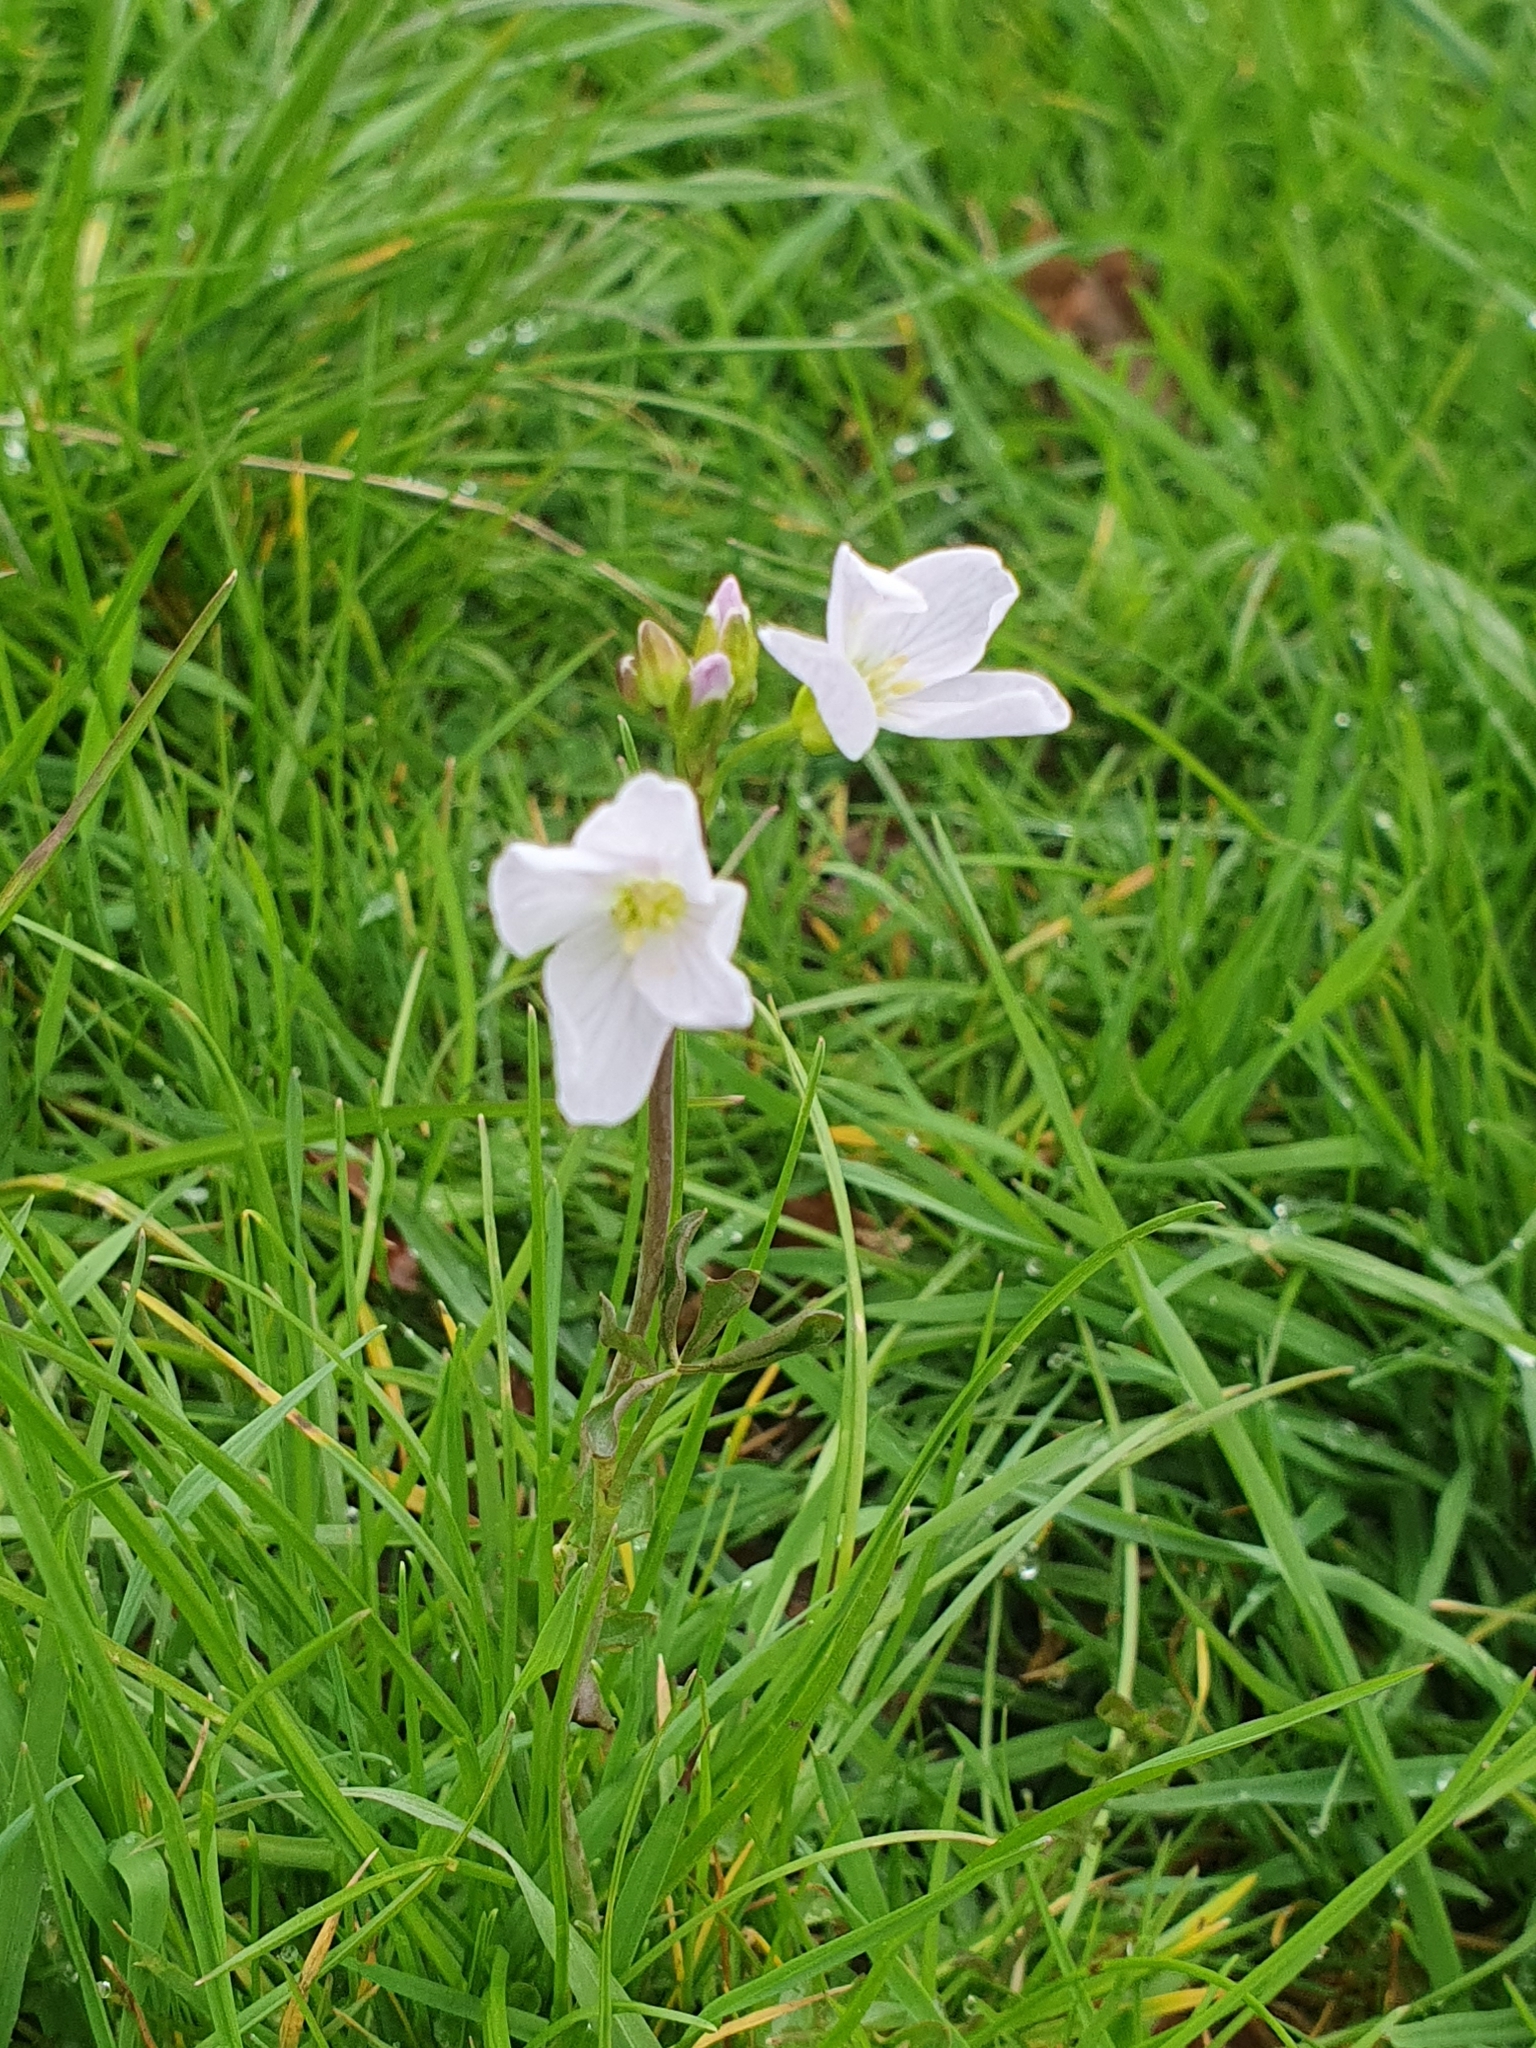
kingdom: Plantae
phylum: Tracheophyta
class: Magnoliopsida
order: Brassicales
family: Brassicaceae
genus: Cardamine
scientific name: Cardamine pratensis
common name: Cuckoo flower
